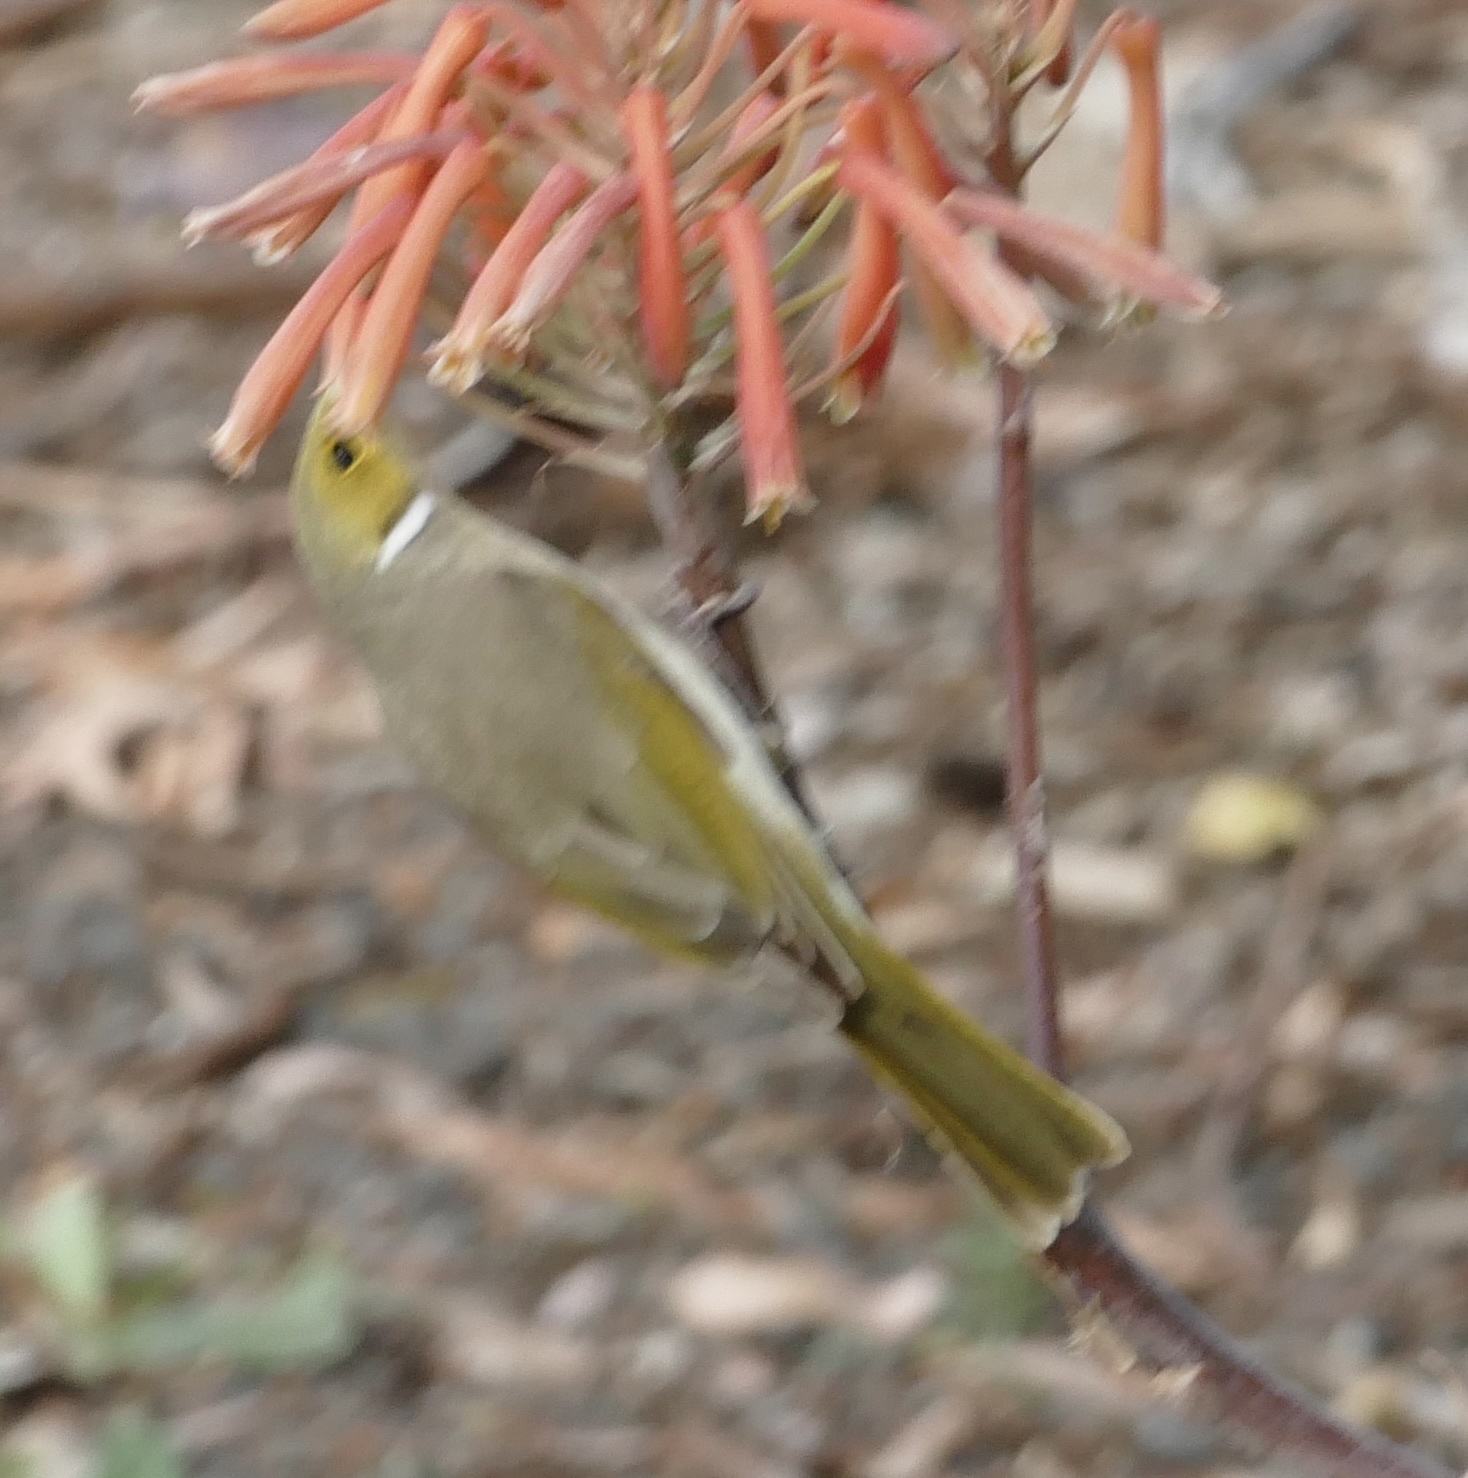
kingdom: Animalia
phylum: Chordata
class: Aves
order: Passeriformes
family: Meliphagidae
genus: Ptilotula
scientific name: Ptilotula penicillata
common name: White-plumed honeyeater
